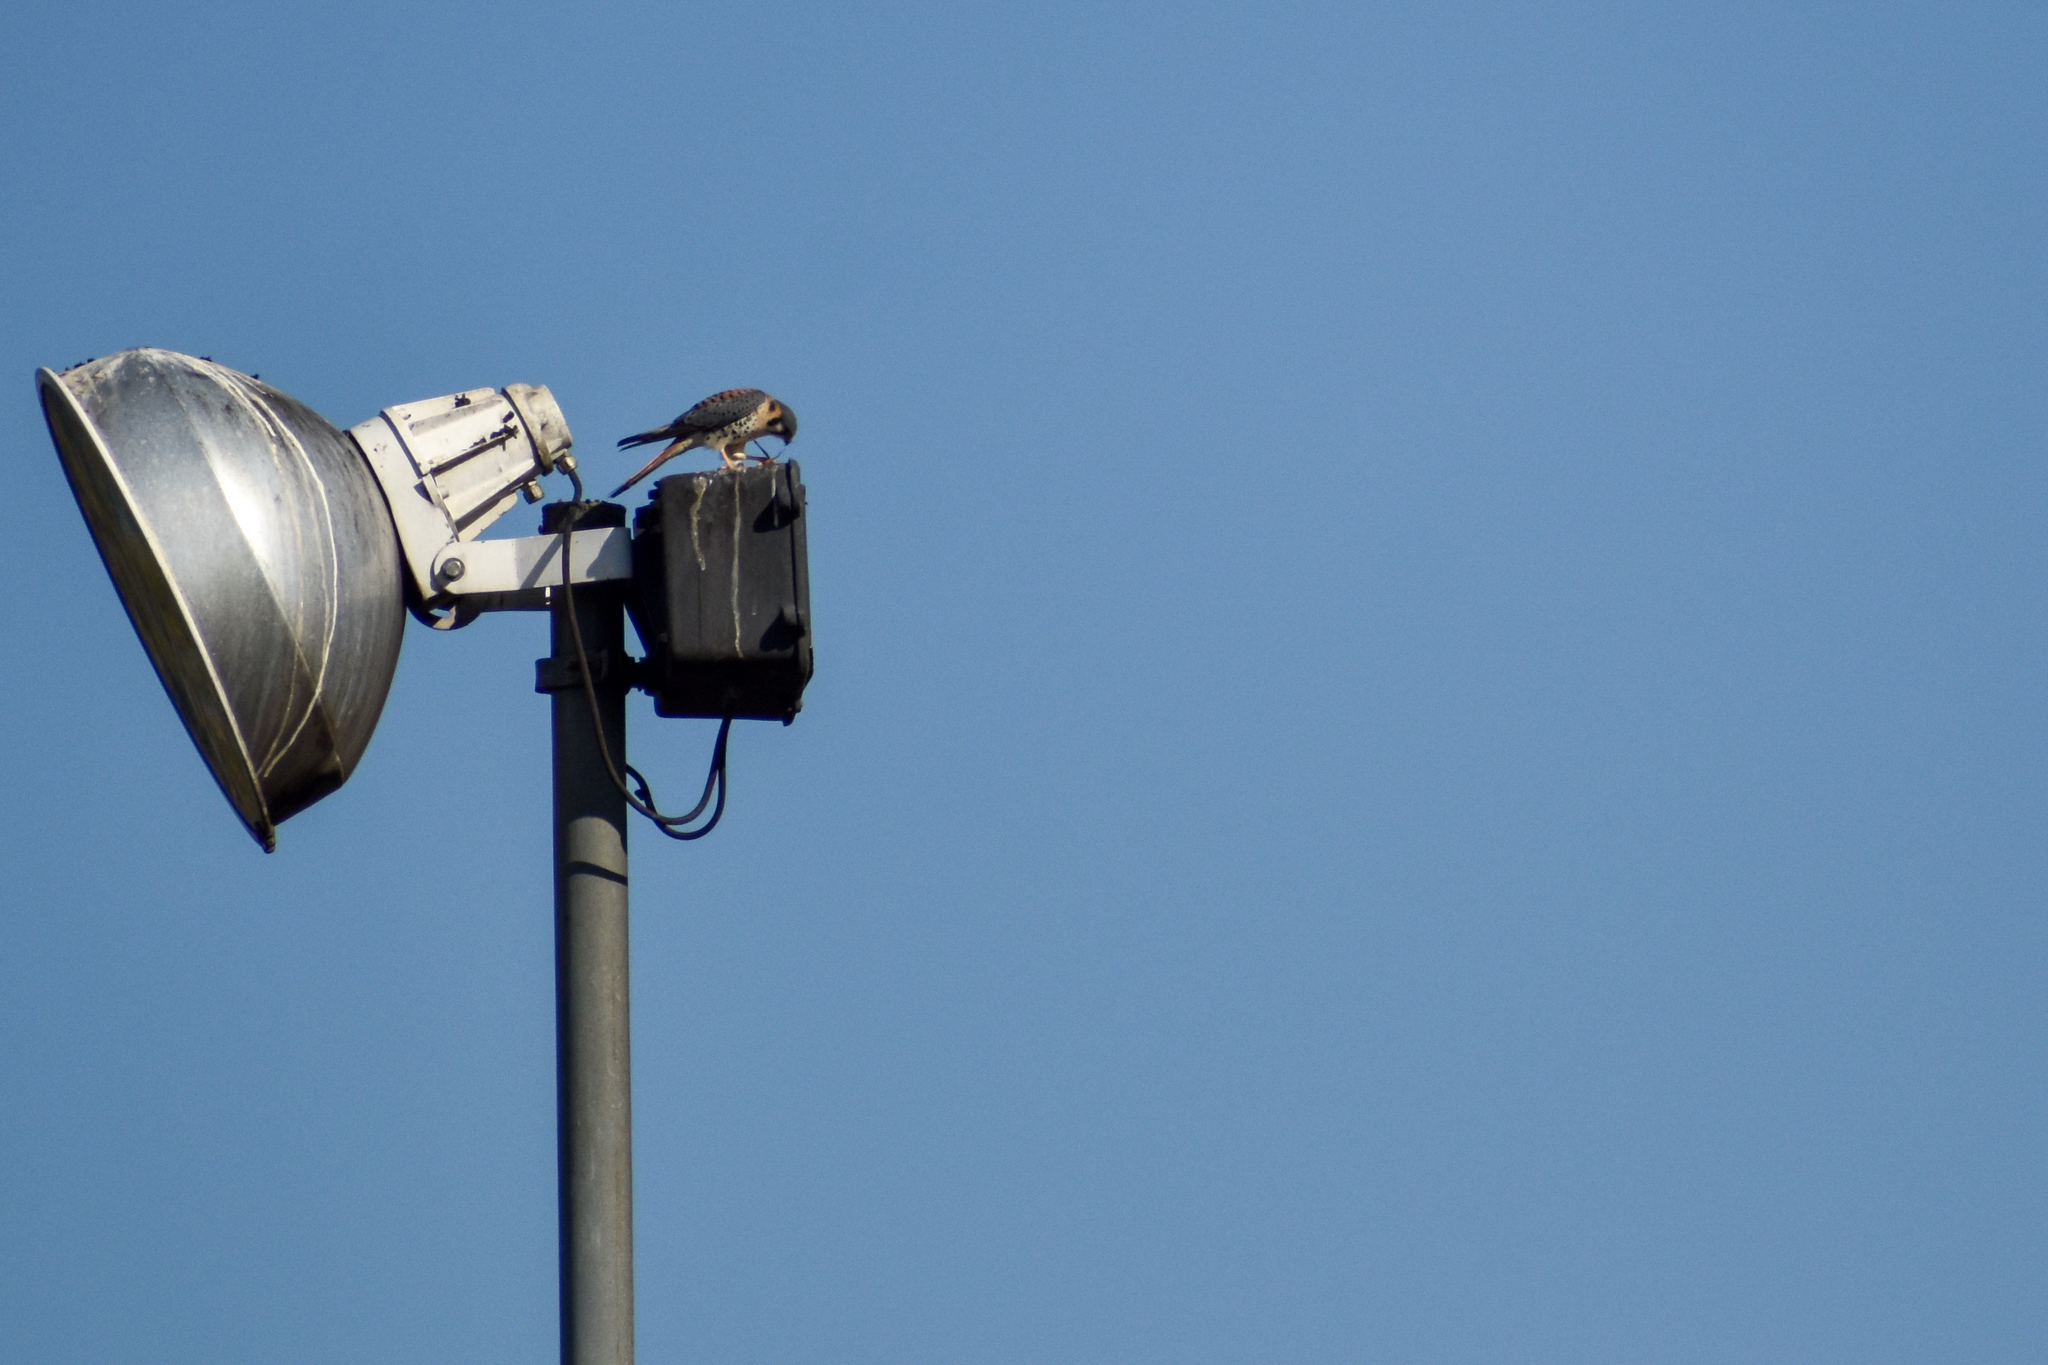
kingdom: Animalia
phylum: Chordata
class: Aves
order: Falconiformes
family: Falconidae
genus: Falco
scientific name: Falco sparverius
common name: American kestrel
